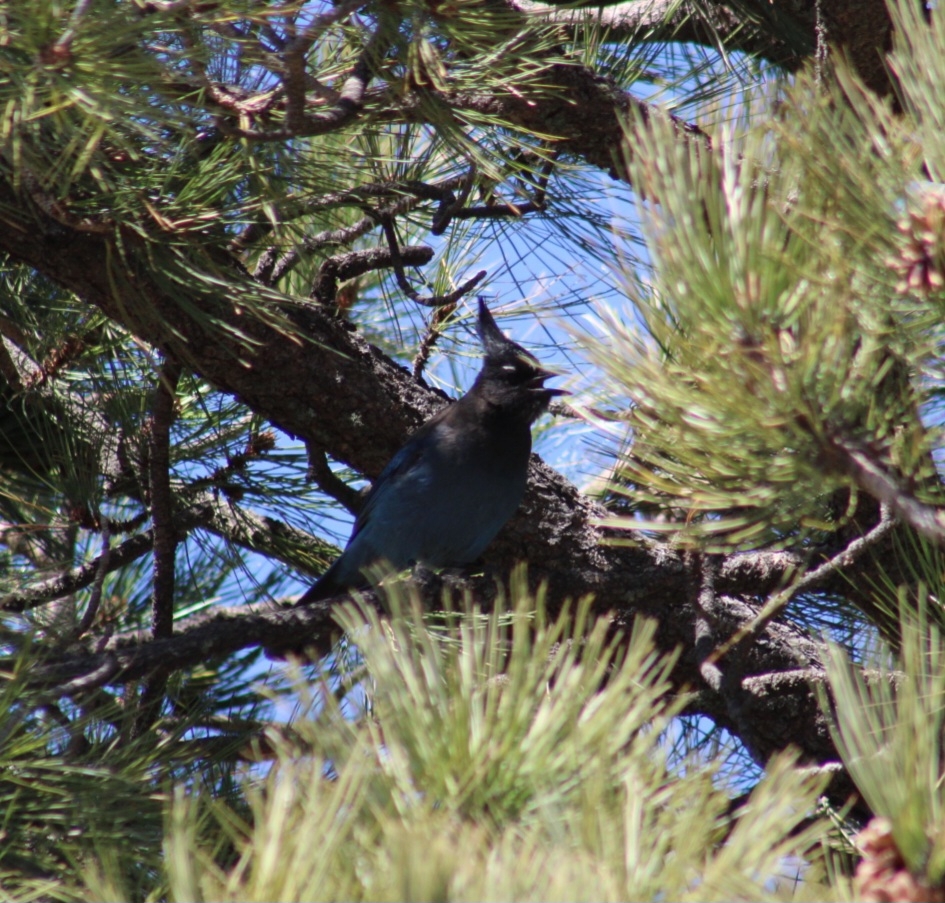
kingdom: Animalia
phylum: Chordata
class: Aves
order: Passeriformes
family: Corvidae
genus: Cyanocitta
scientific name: Cyanocitta stelleri
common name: Steller's jay
